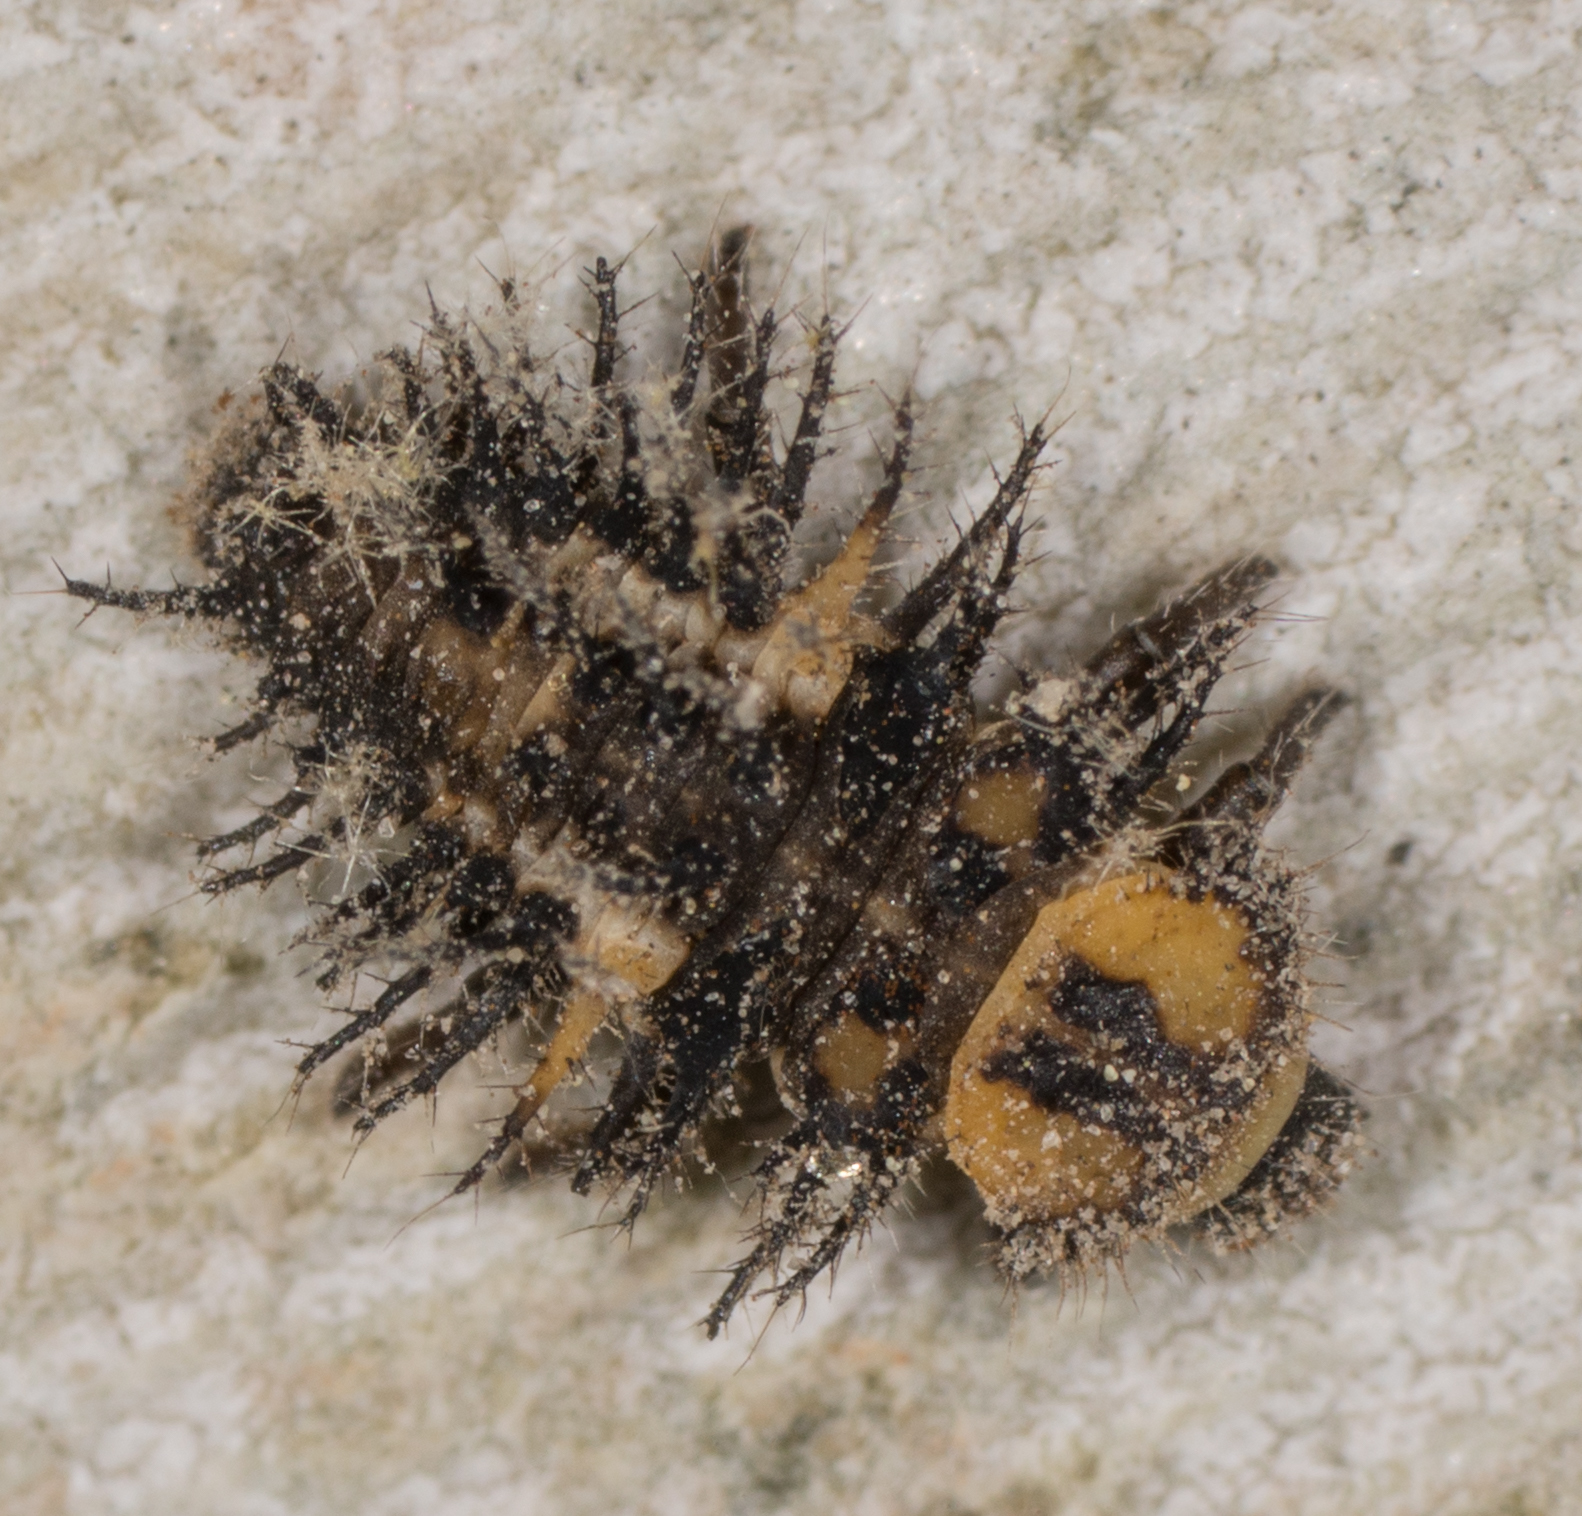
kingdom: Animalia
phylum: Arthropoda
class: Insecta
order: Coleoptera
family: Coccinellidae
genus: Axion
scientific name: Axion plagiatum
